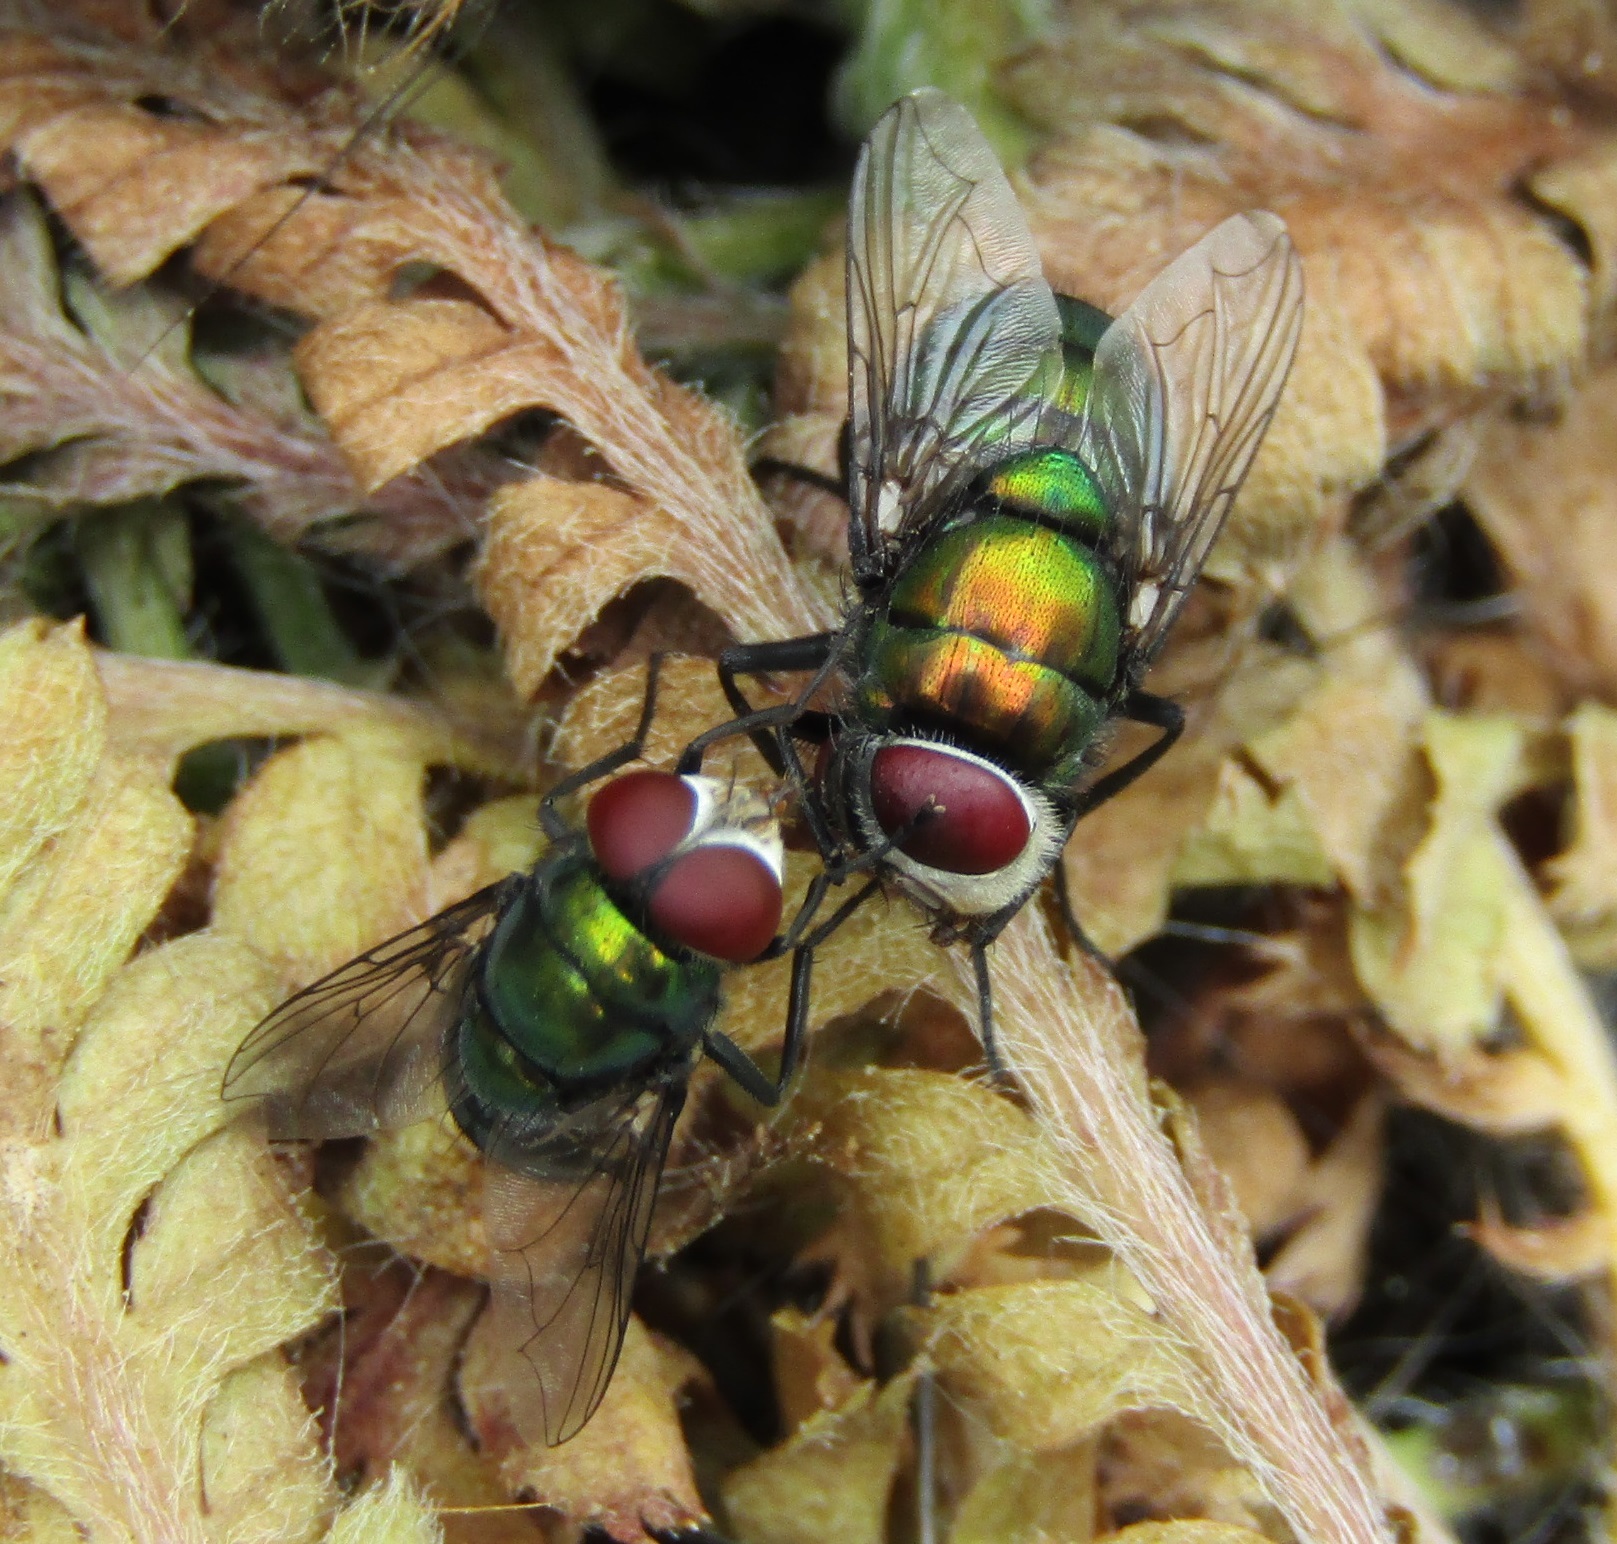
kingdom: Animalia
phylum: Arthropoda
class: Insecta
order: Diptera
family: Calliphoridae
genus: Chrysomya
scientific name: Chrysomya rufifacies
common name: Blow fly
